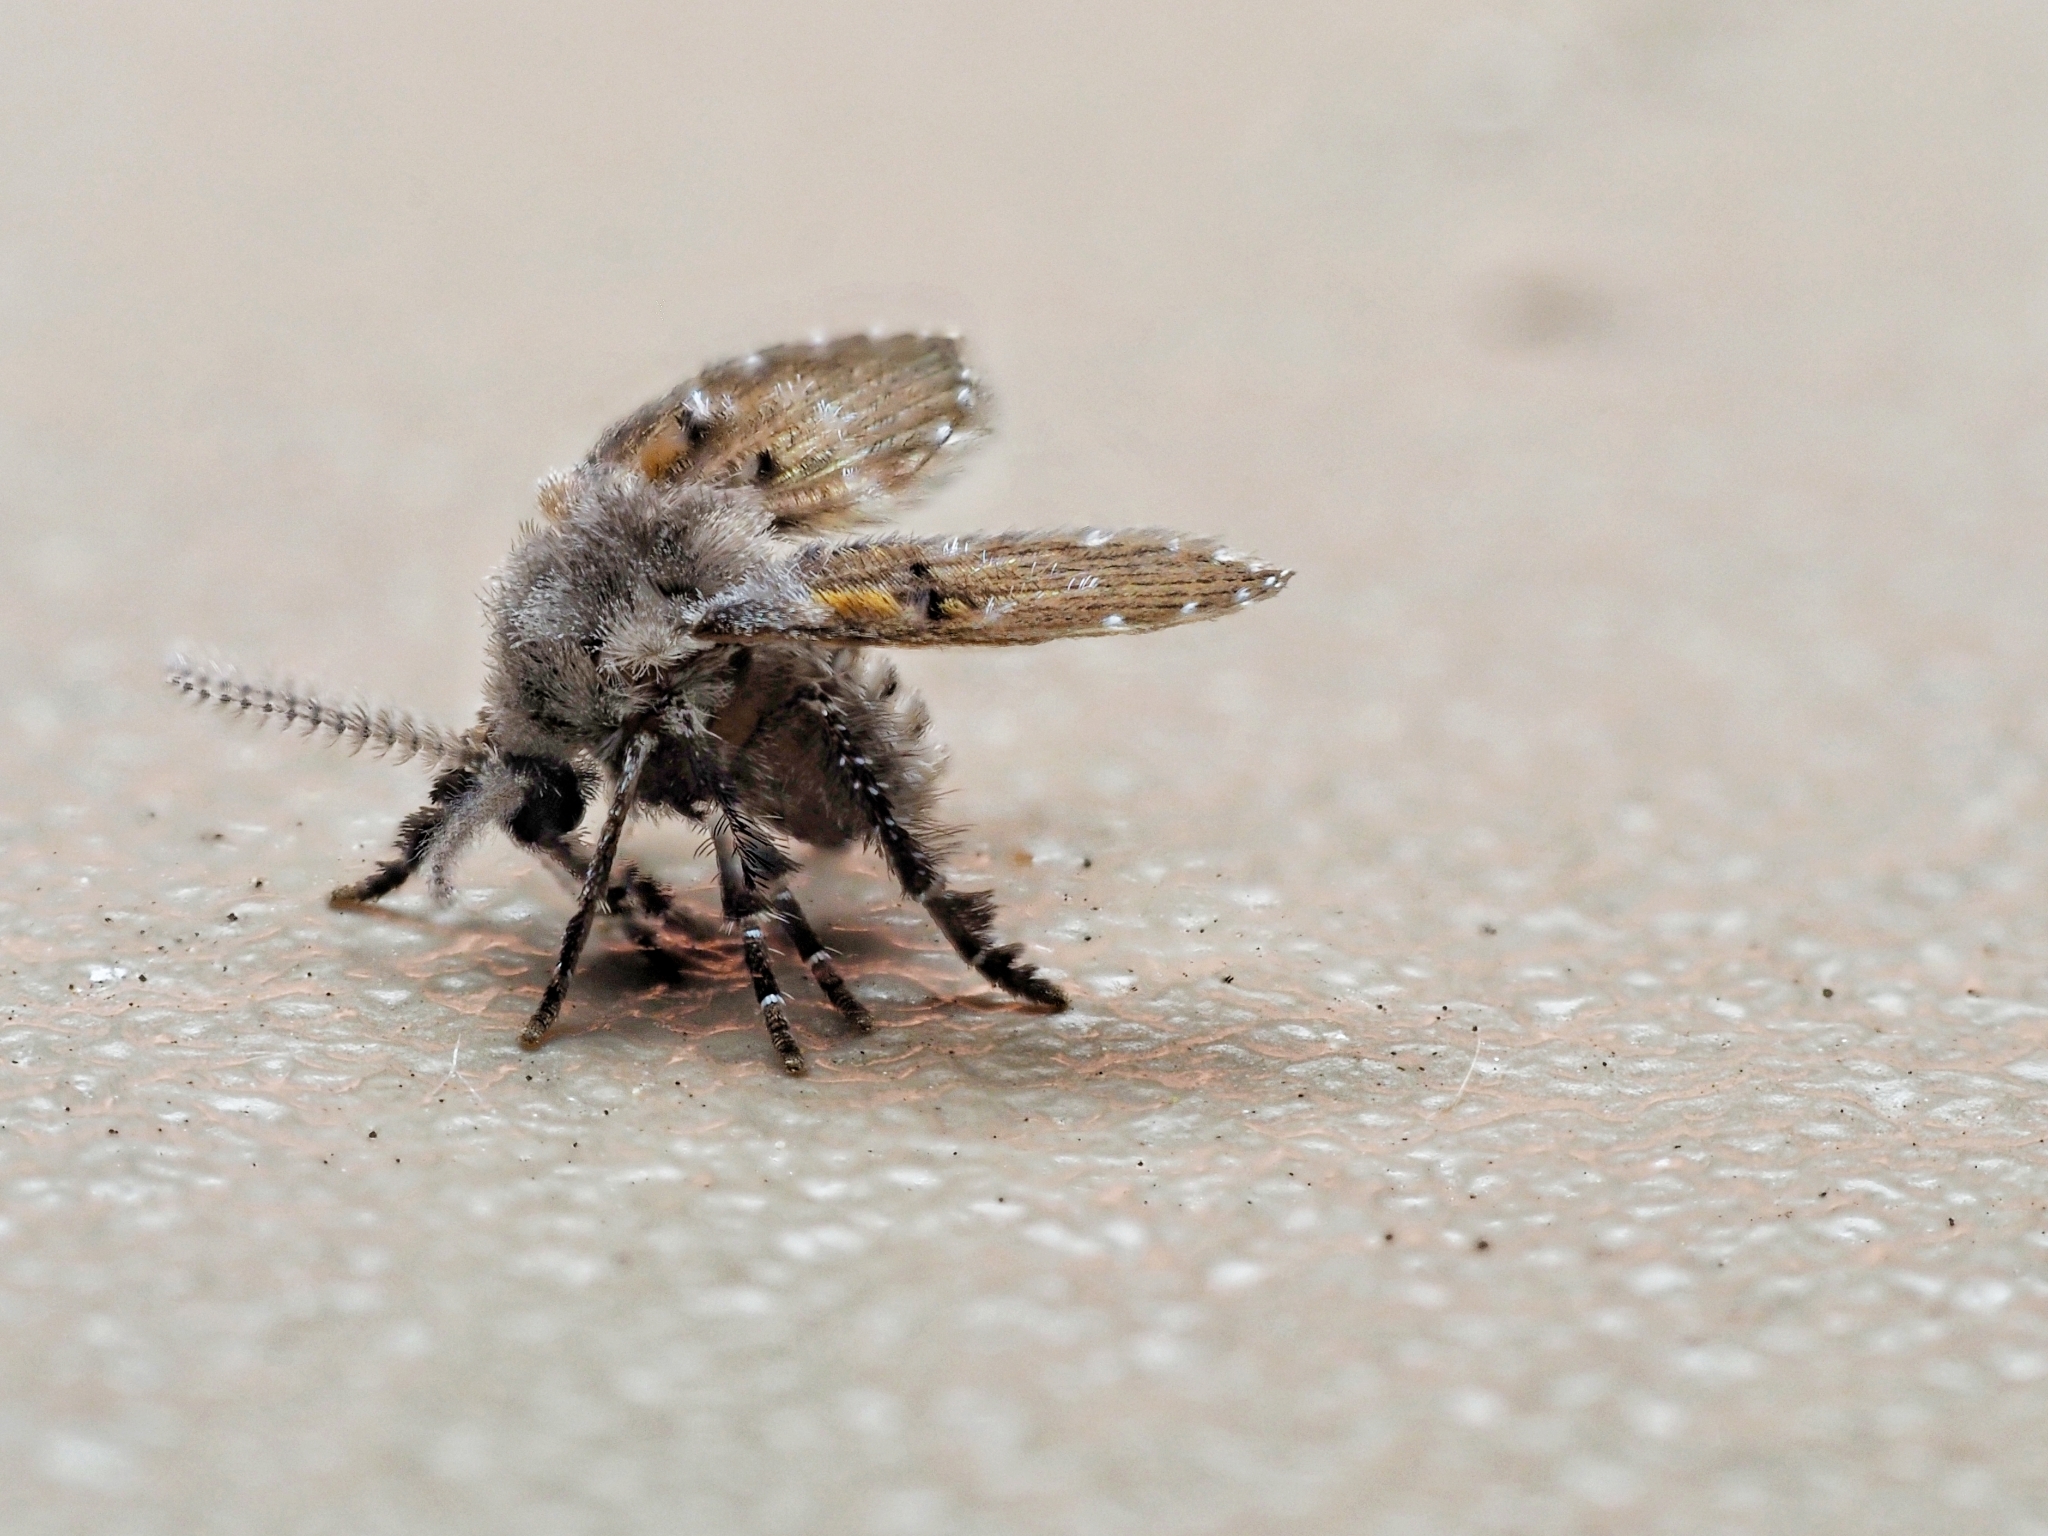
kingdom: Animalia
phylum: Arthropoda
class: Insecta
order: Diptera
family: Psychodidae
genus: Clogmia
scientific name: Clogmia albipunctatus
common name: White-spotted moth fly
